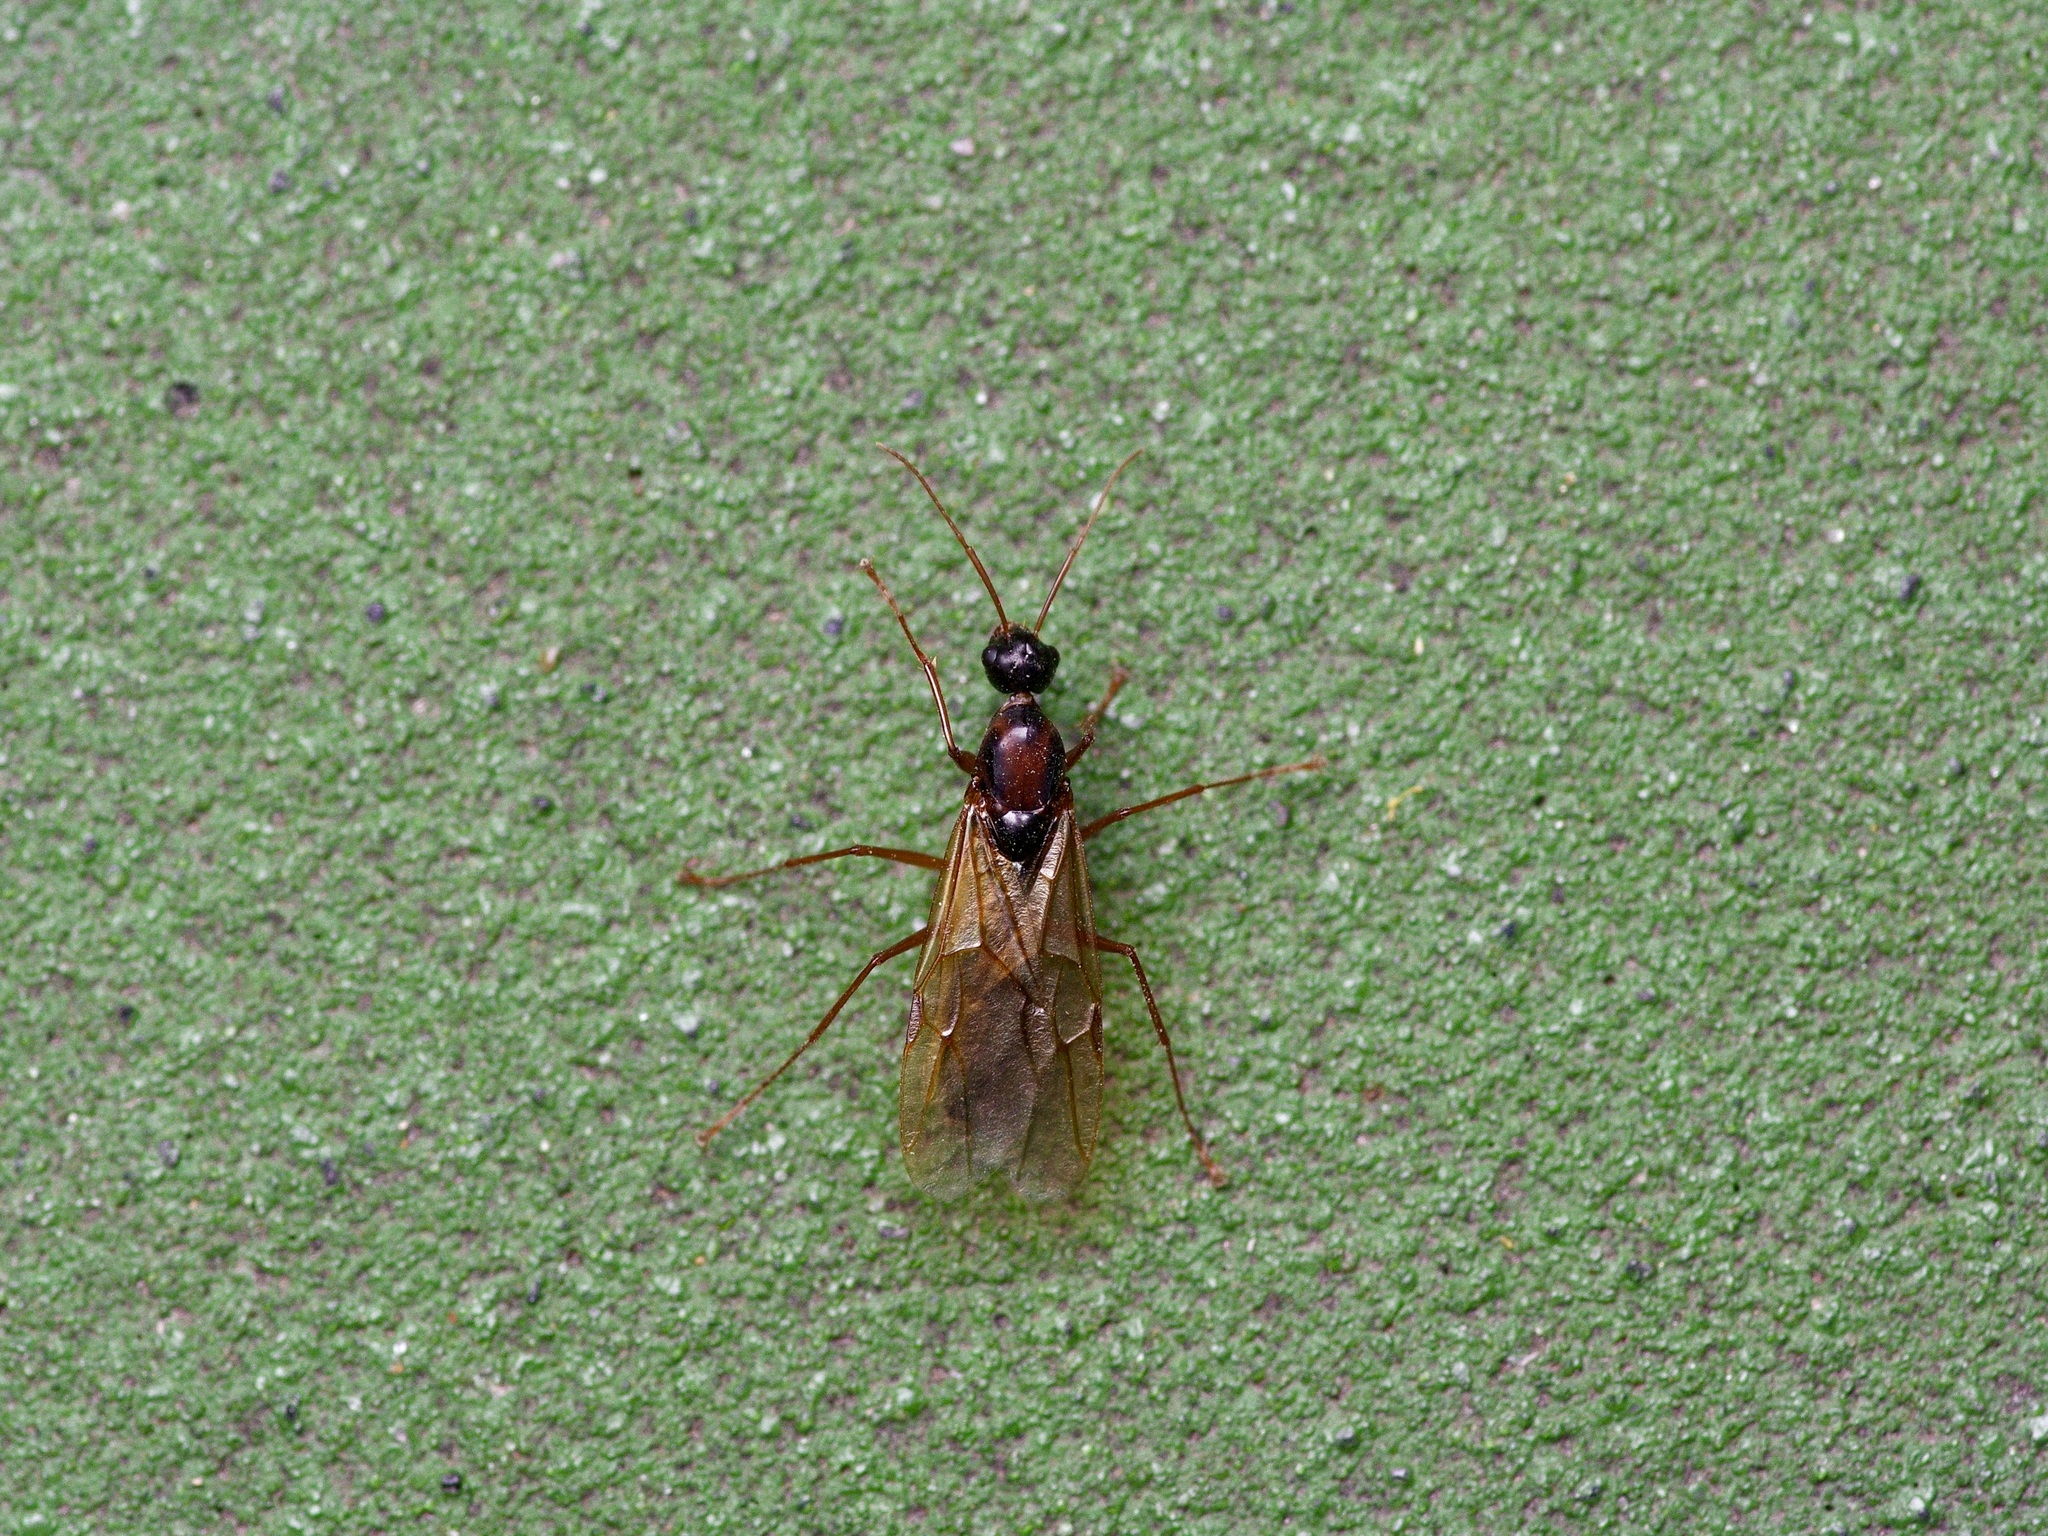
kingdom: Animalia
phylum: Arthropoda
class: Insecta
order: Hymenoptera
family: Formicidae
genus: Camponotus
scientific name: Camponotus texanus
